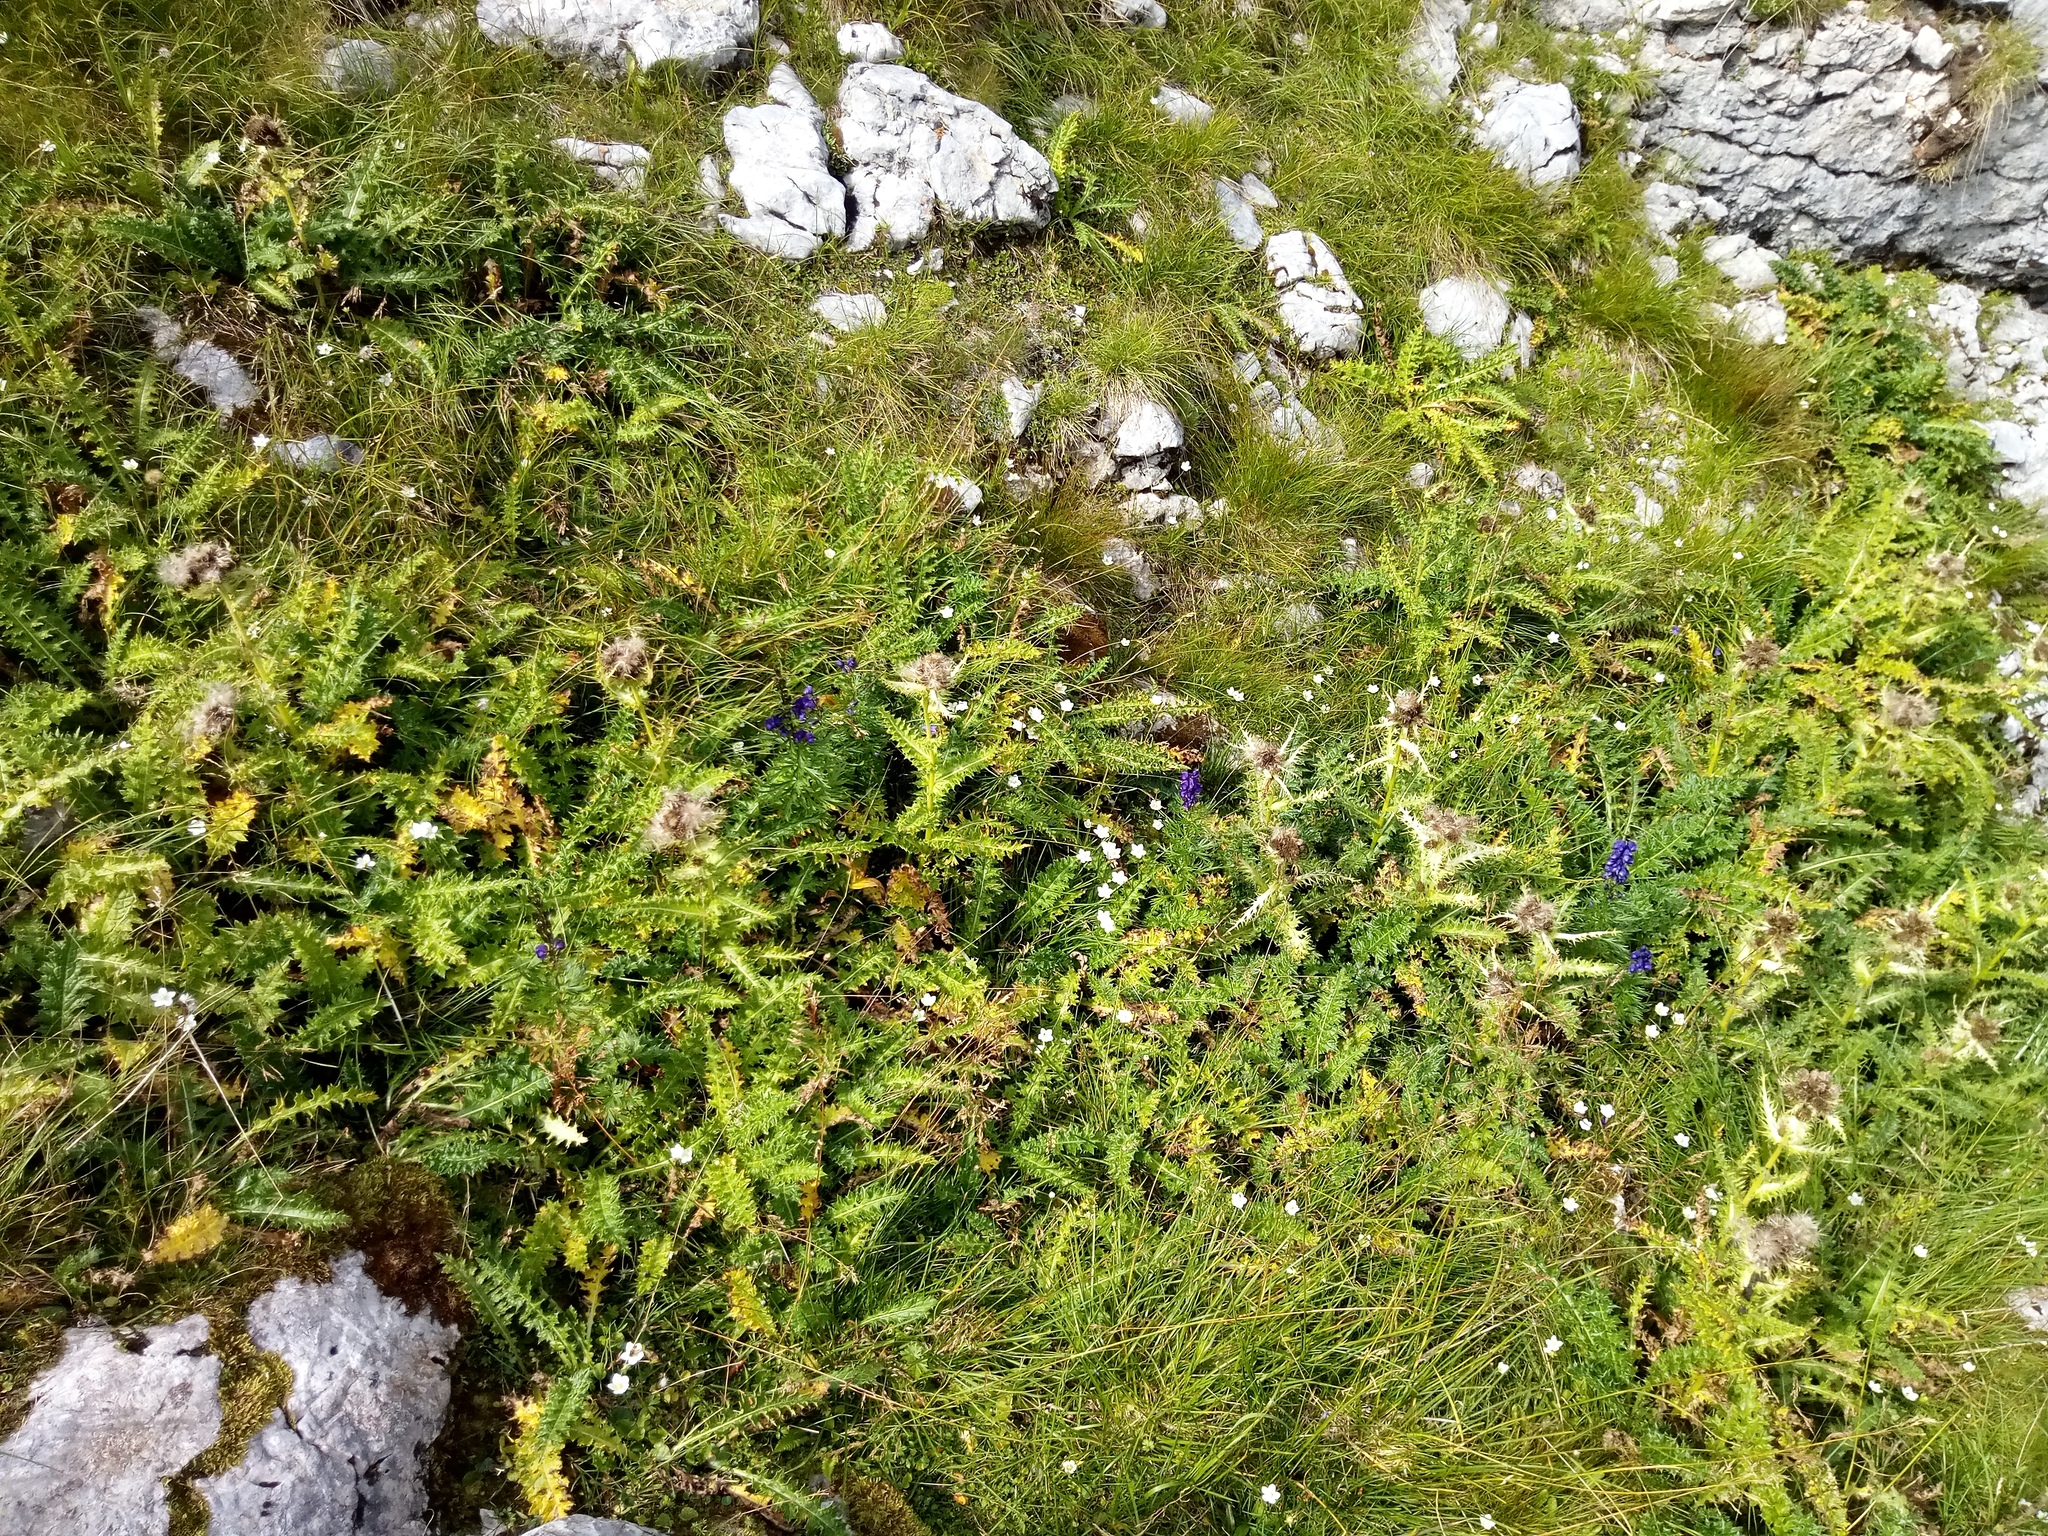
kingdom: Plantae
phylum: Tracheophyta
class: Magnoliopsida
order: Asterales
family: Asteraceae
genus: Cirsium
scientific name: Cirsium spinosissimum
